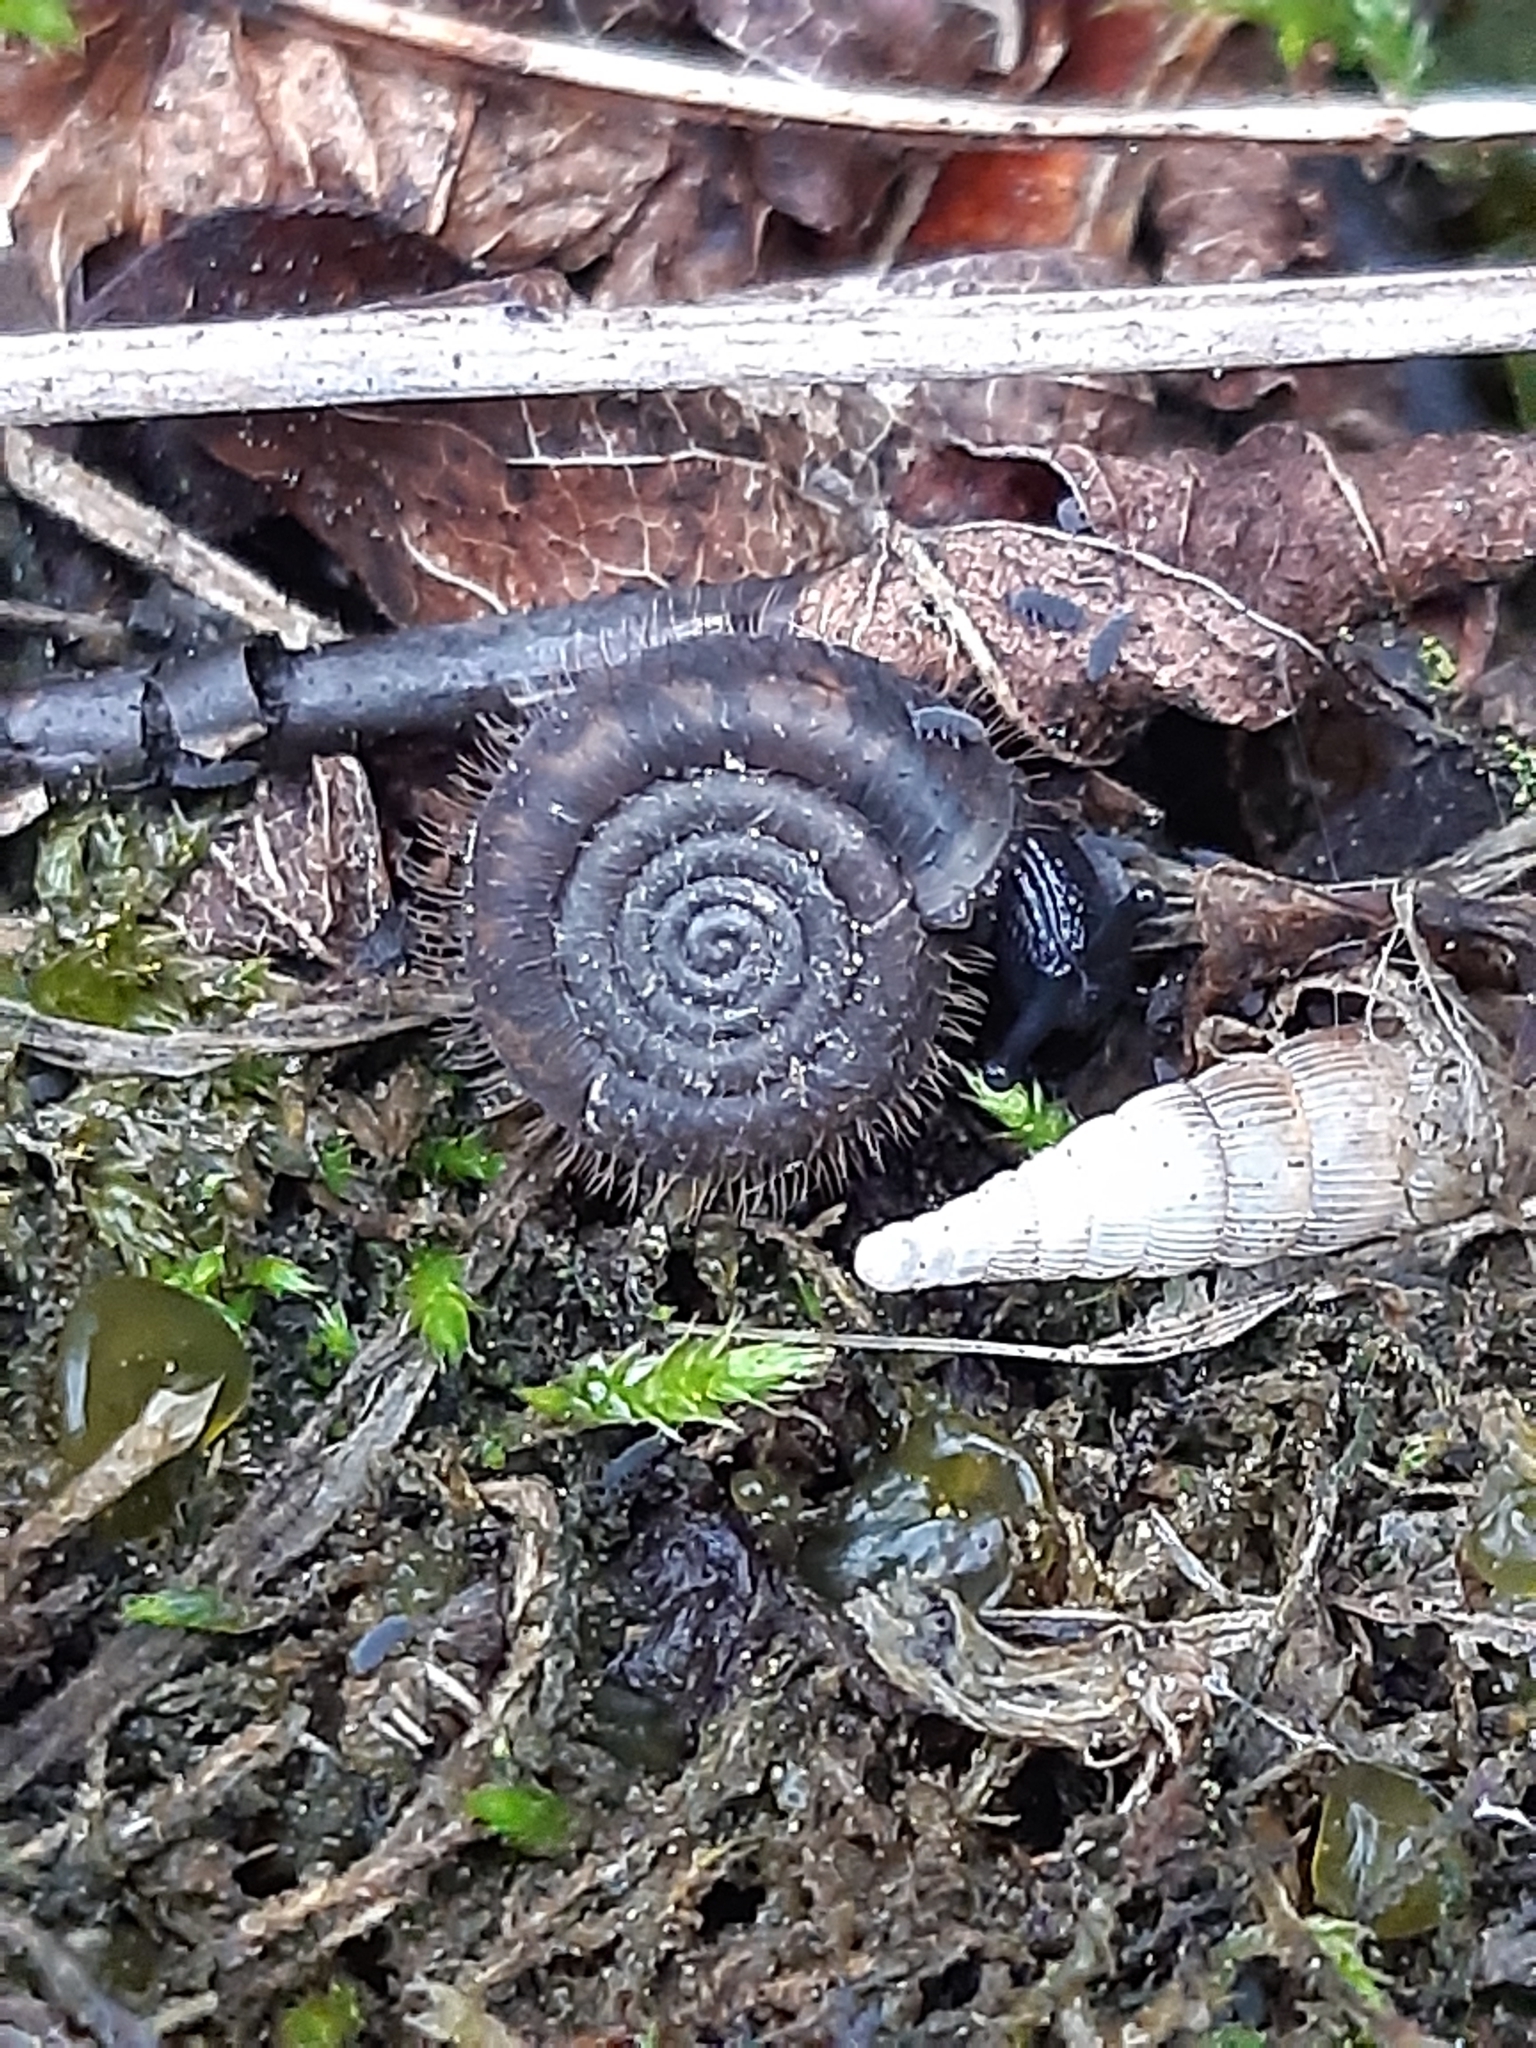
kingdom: Animalia
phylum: Mollusca
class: Gastropoda
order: Stylommatophora
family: Helicodontidae
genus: Helicodonta
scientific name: Helicodonta obvoluta
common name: Cheese snail
